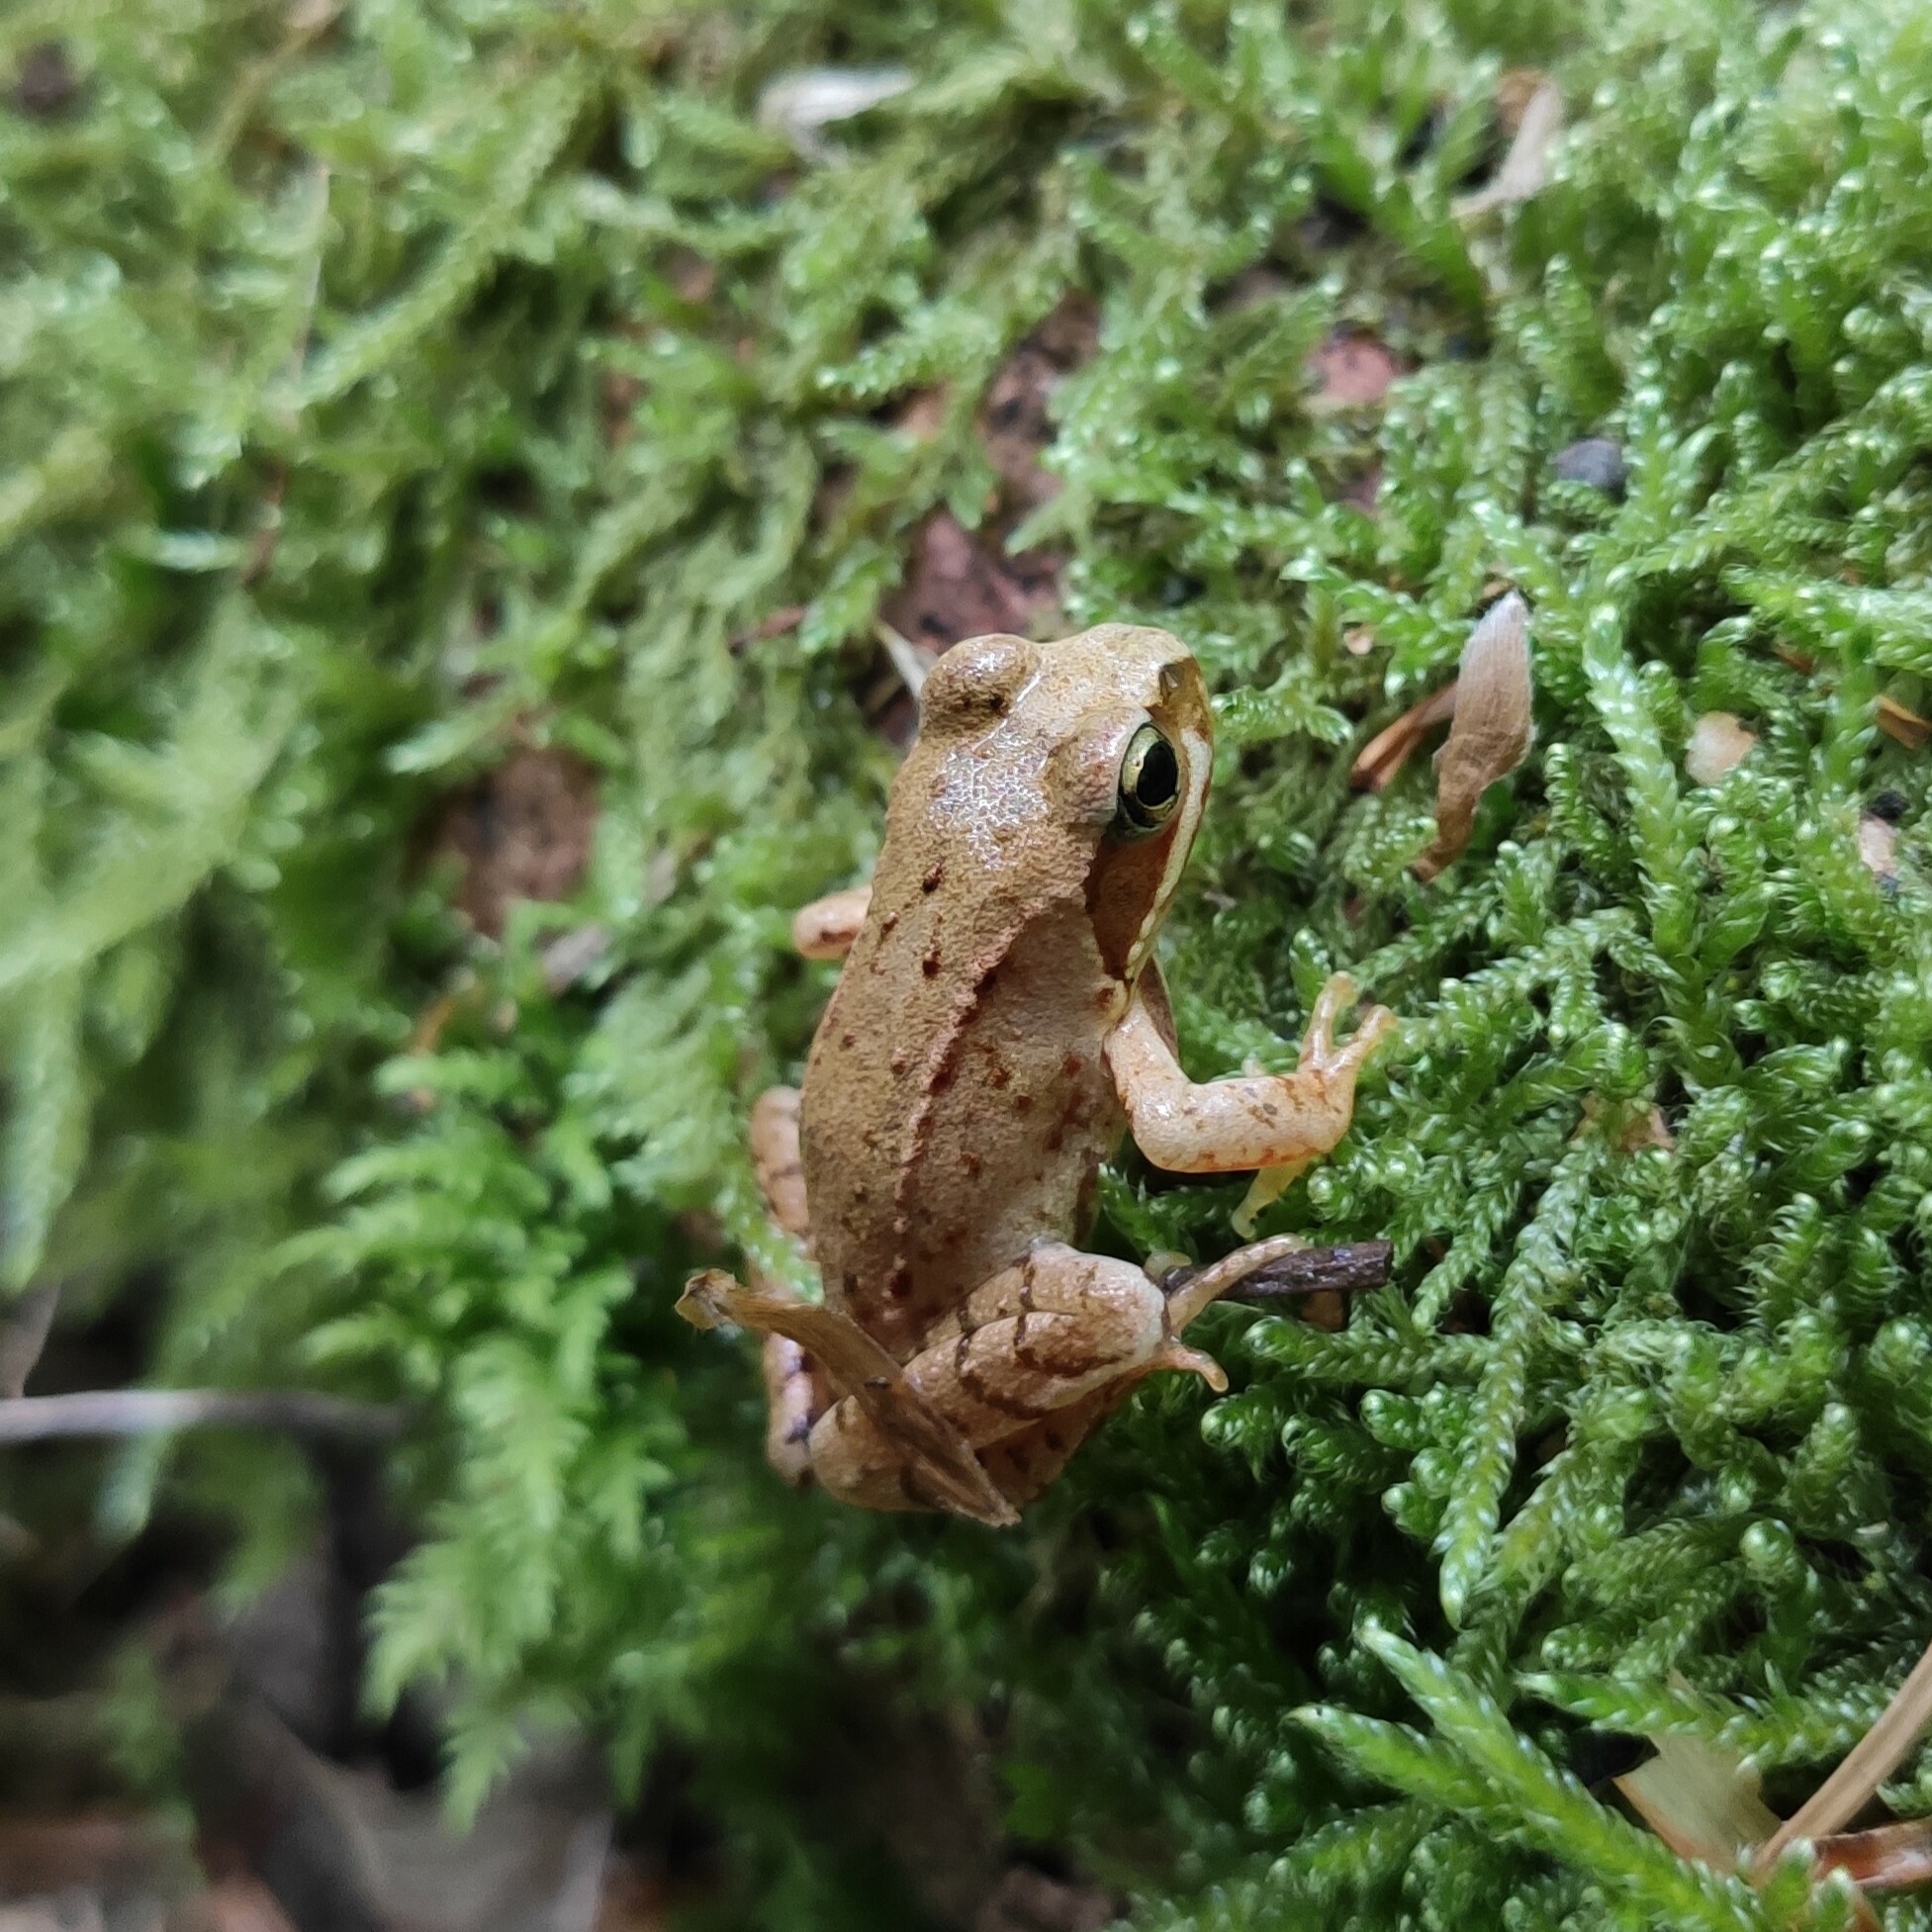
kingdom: Animalia
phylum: Chordata
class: Amphibia
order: Anura
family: Ranidae
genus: Rana
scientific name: Rana temporaria
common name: Common frog
